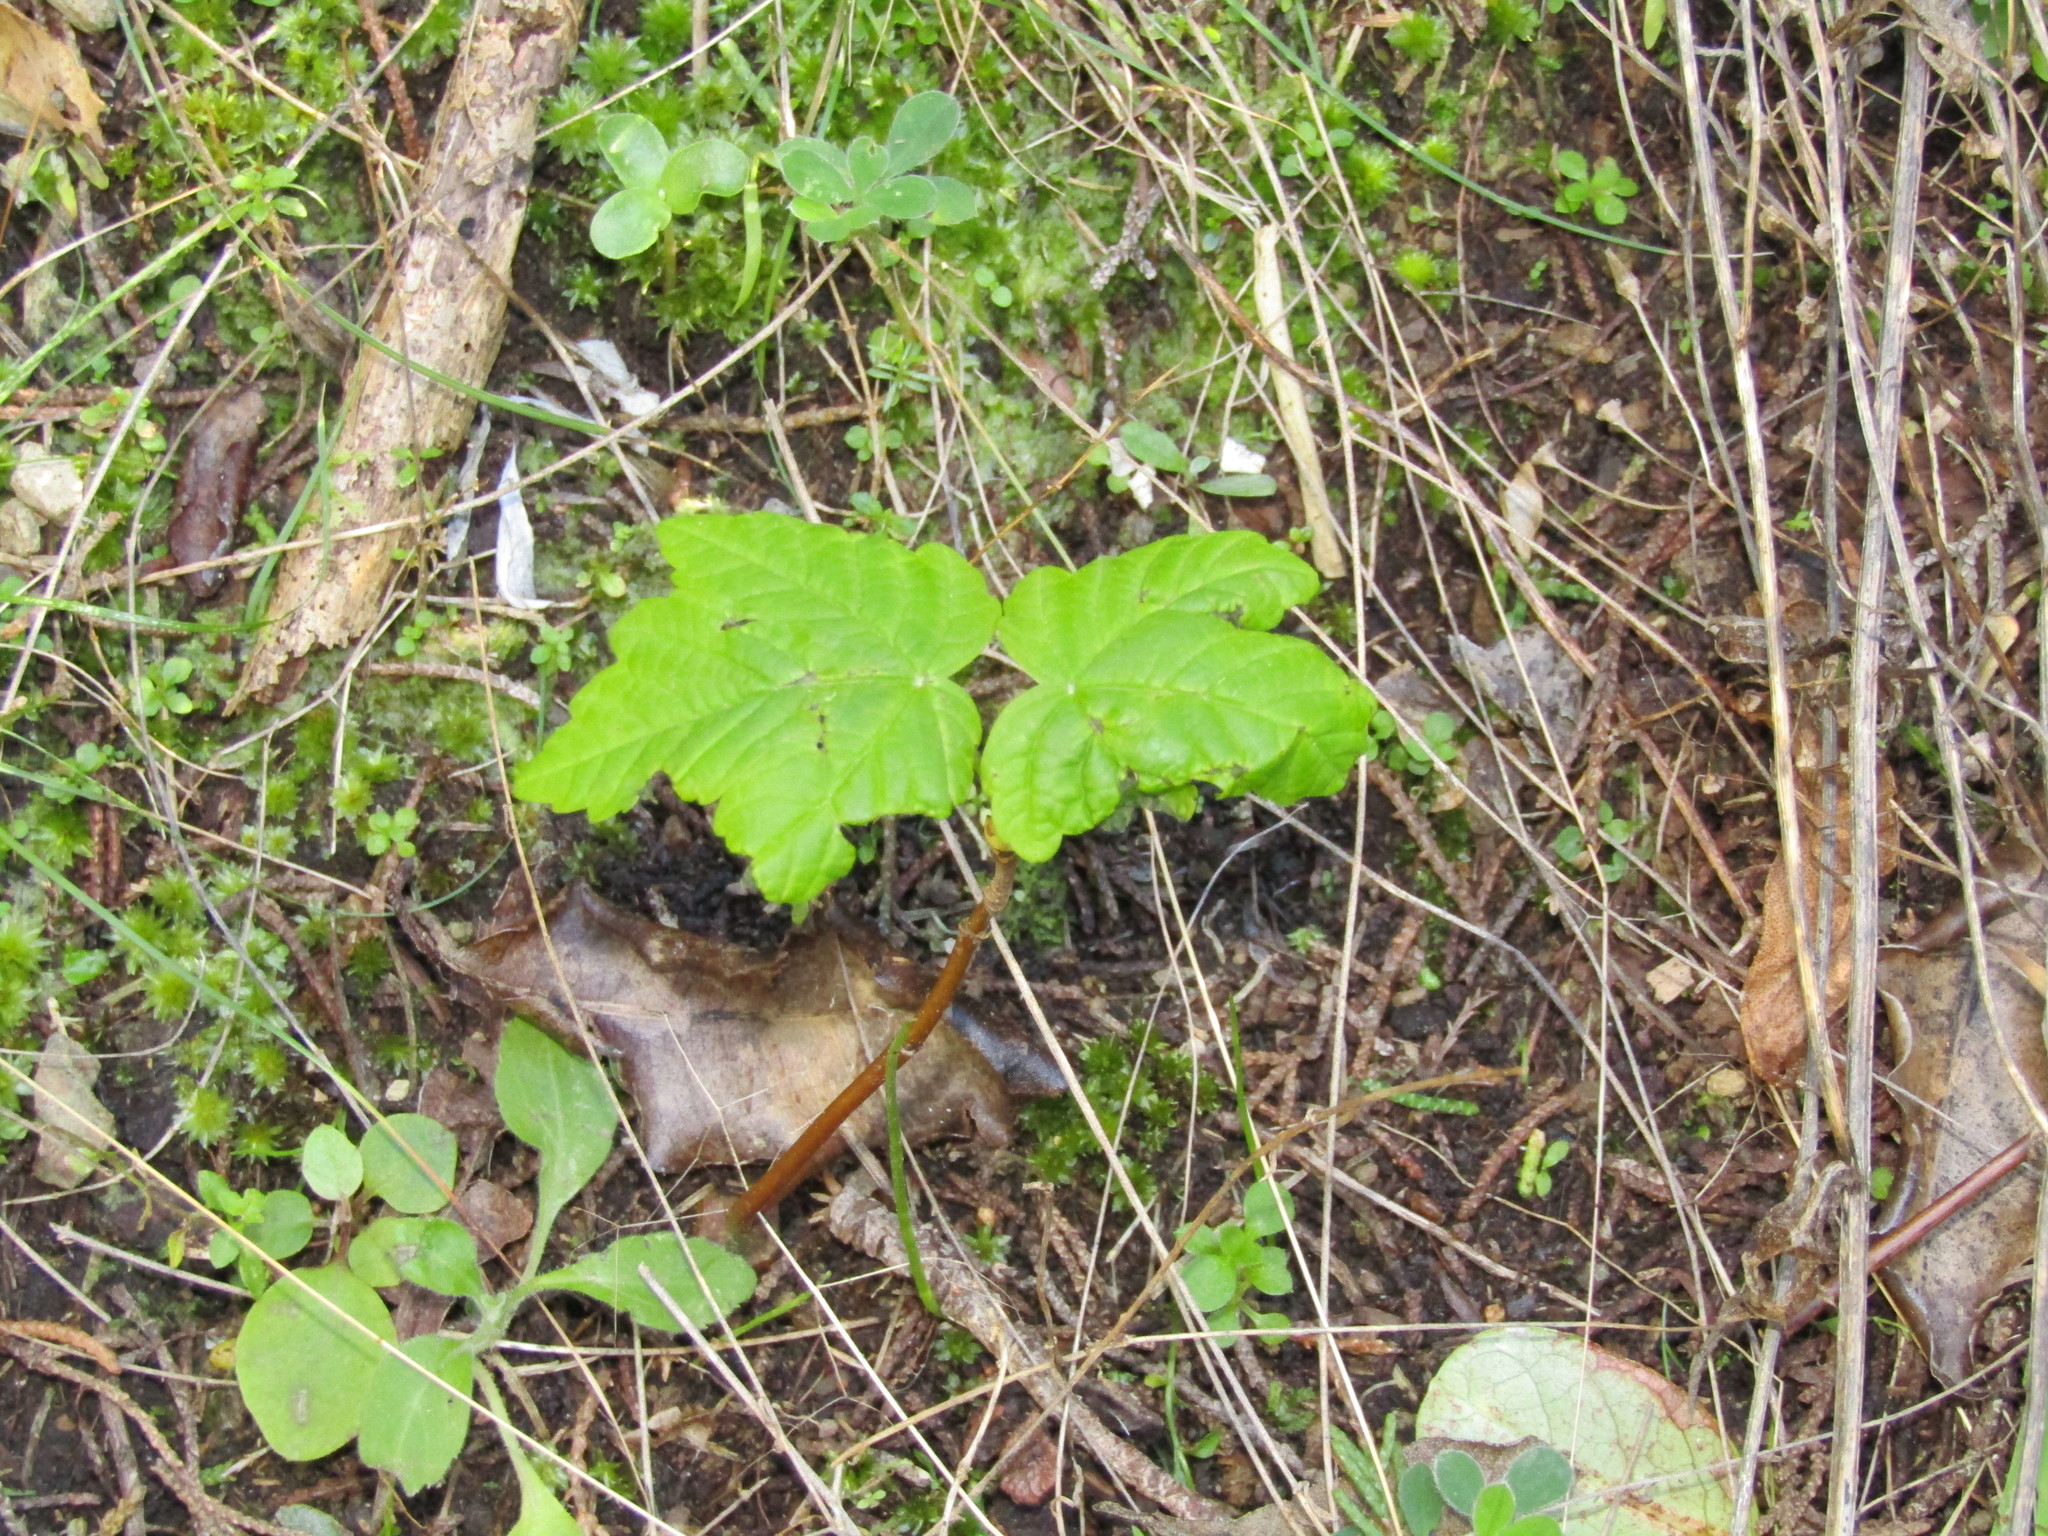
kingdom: Plantae
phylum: Tracheophyta
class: Magnoliopsida
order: Sapindales
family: Sapindaceae
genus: Acer
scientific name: Acer pseudoplatanus
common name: Sycamore
